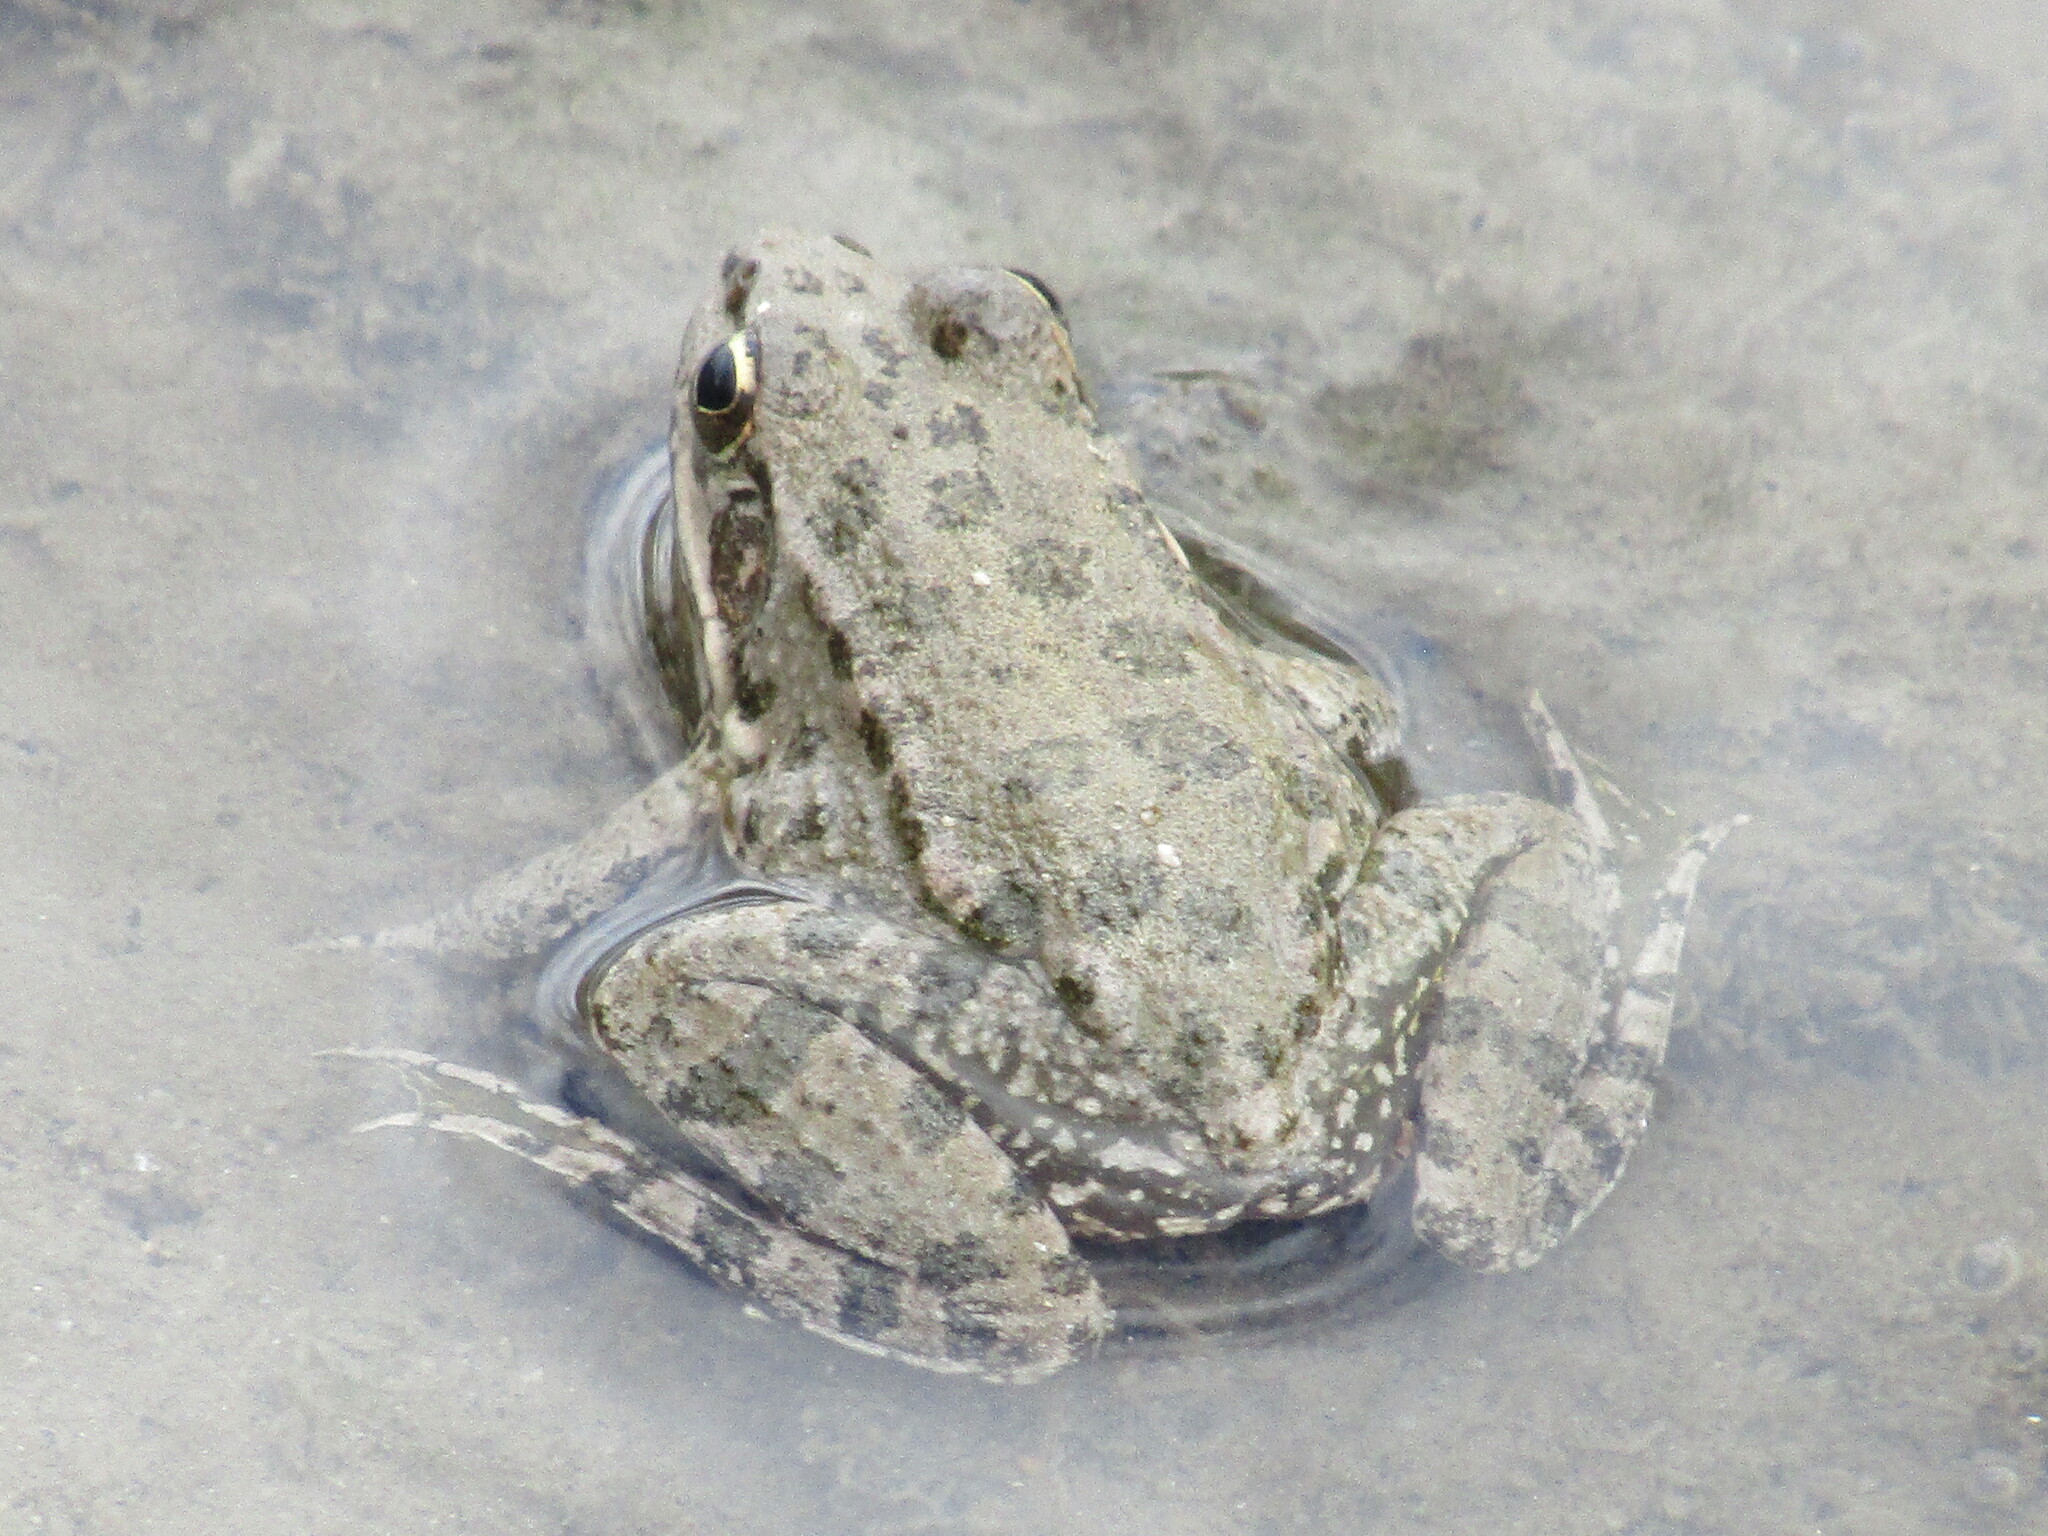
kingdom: Animalia
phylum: Chordata
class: Amphibia
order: Anura
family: Ranidae
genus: Pelophylax
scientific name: Pelophylax ridibundus
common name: Marsh frog
